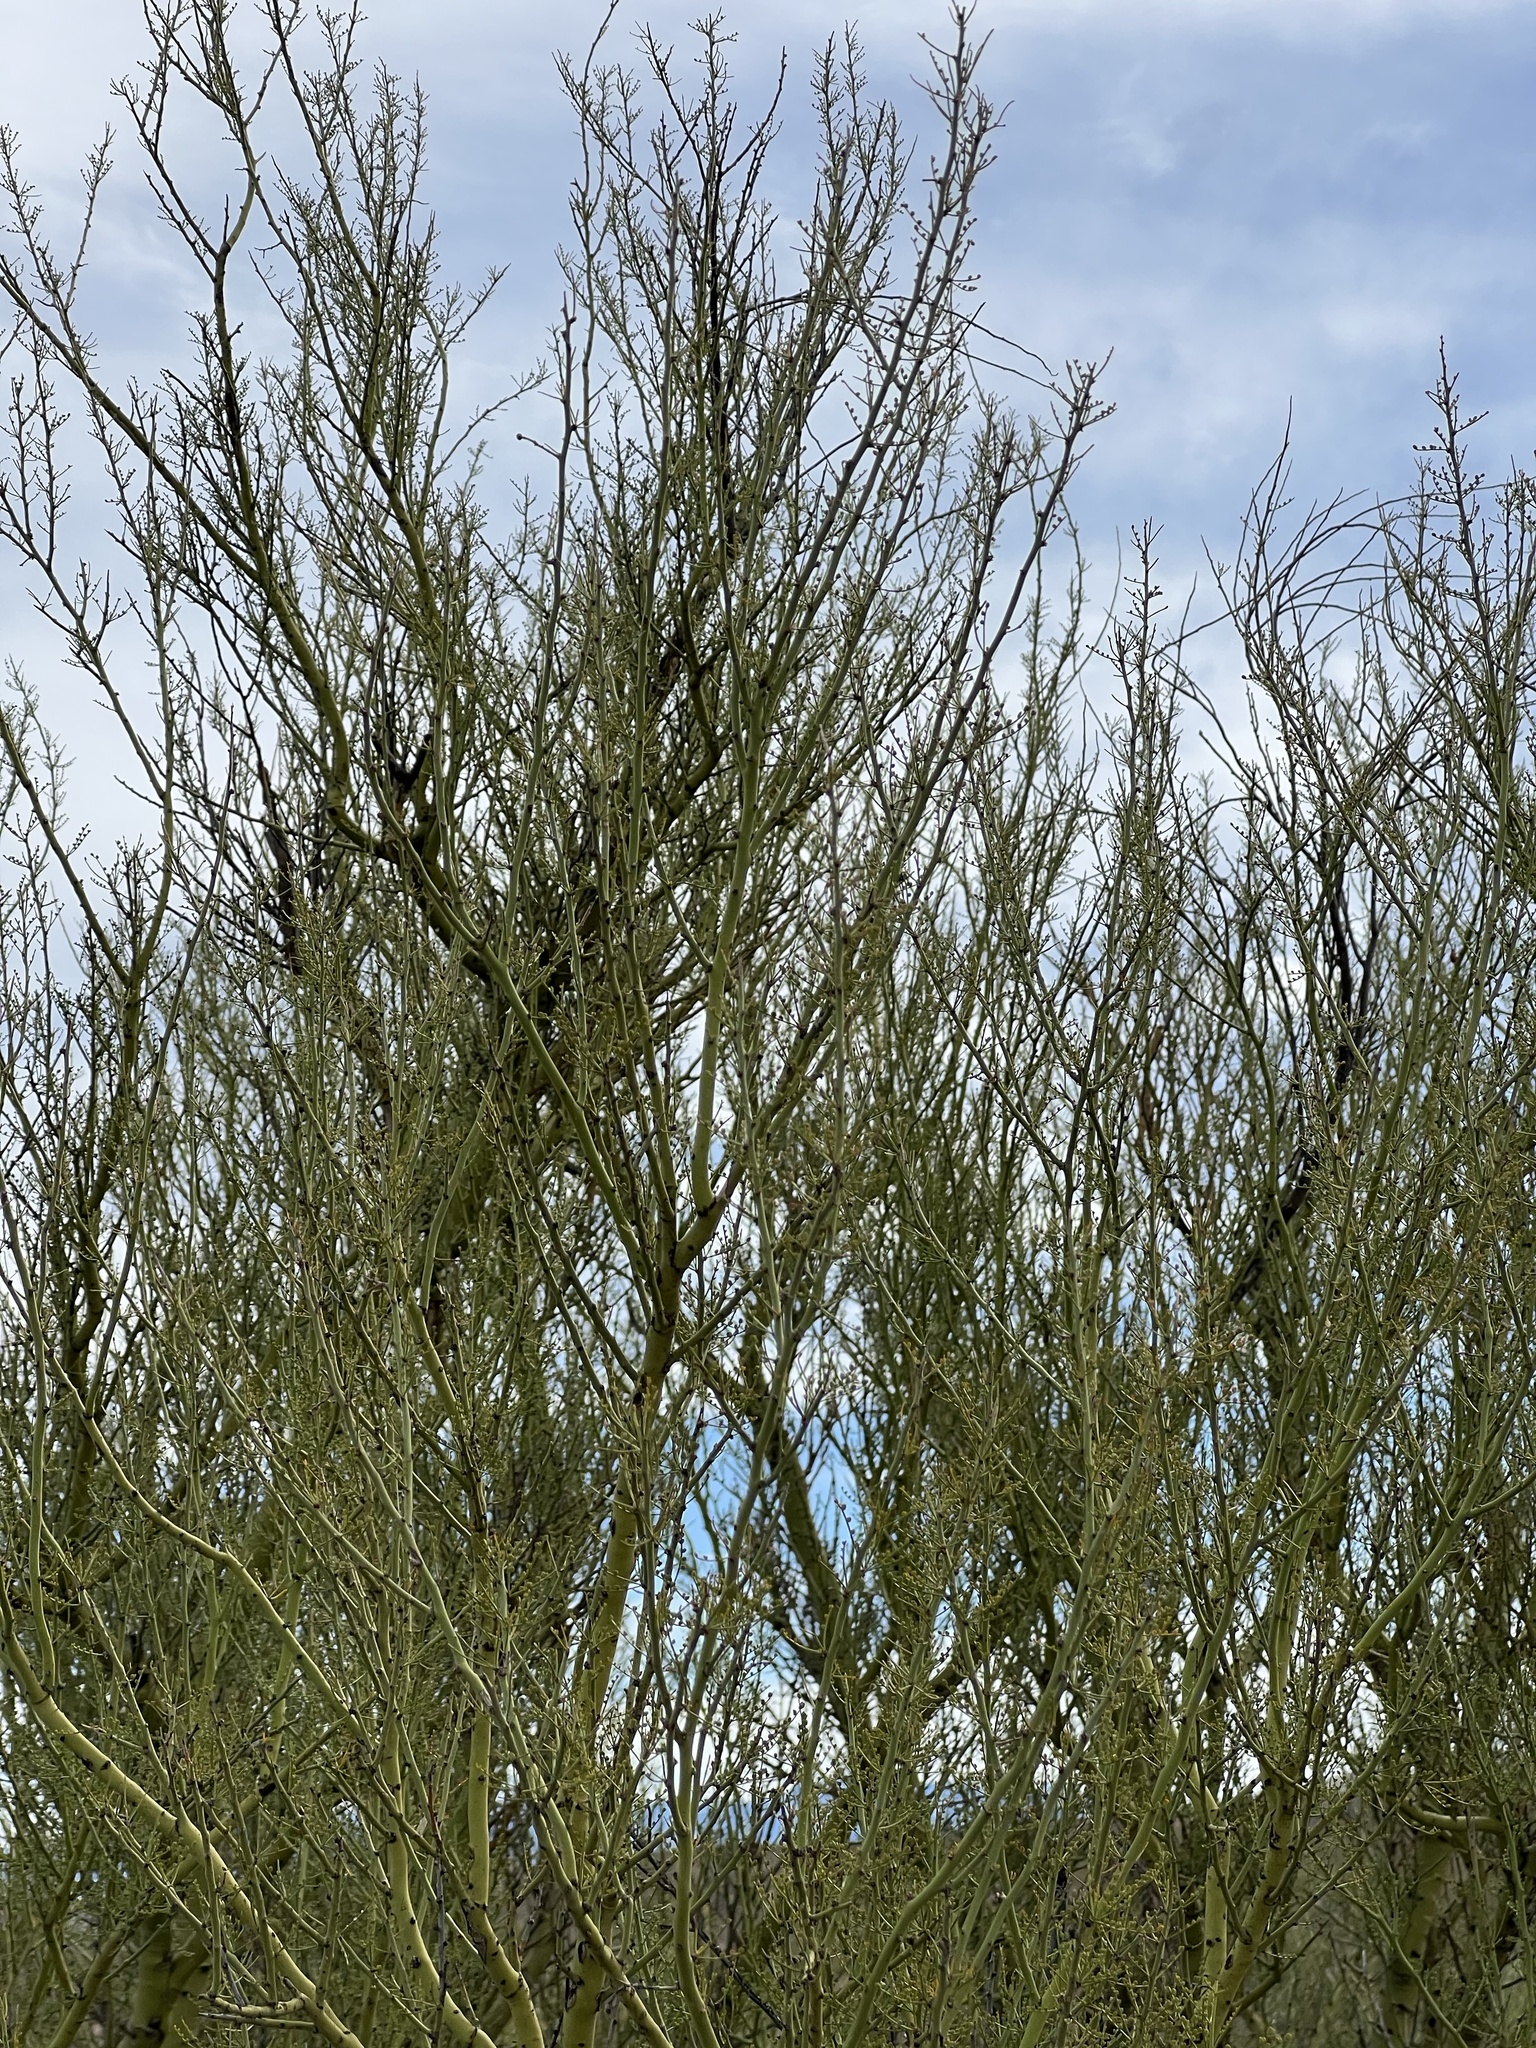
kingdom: Plantae
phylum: Tracheophyta
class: Magnoliopsida
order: Fabales
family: Fabaceae
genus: Parkinsonia
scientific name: Parkinsonia microphylla
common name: Yellow paloverde
